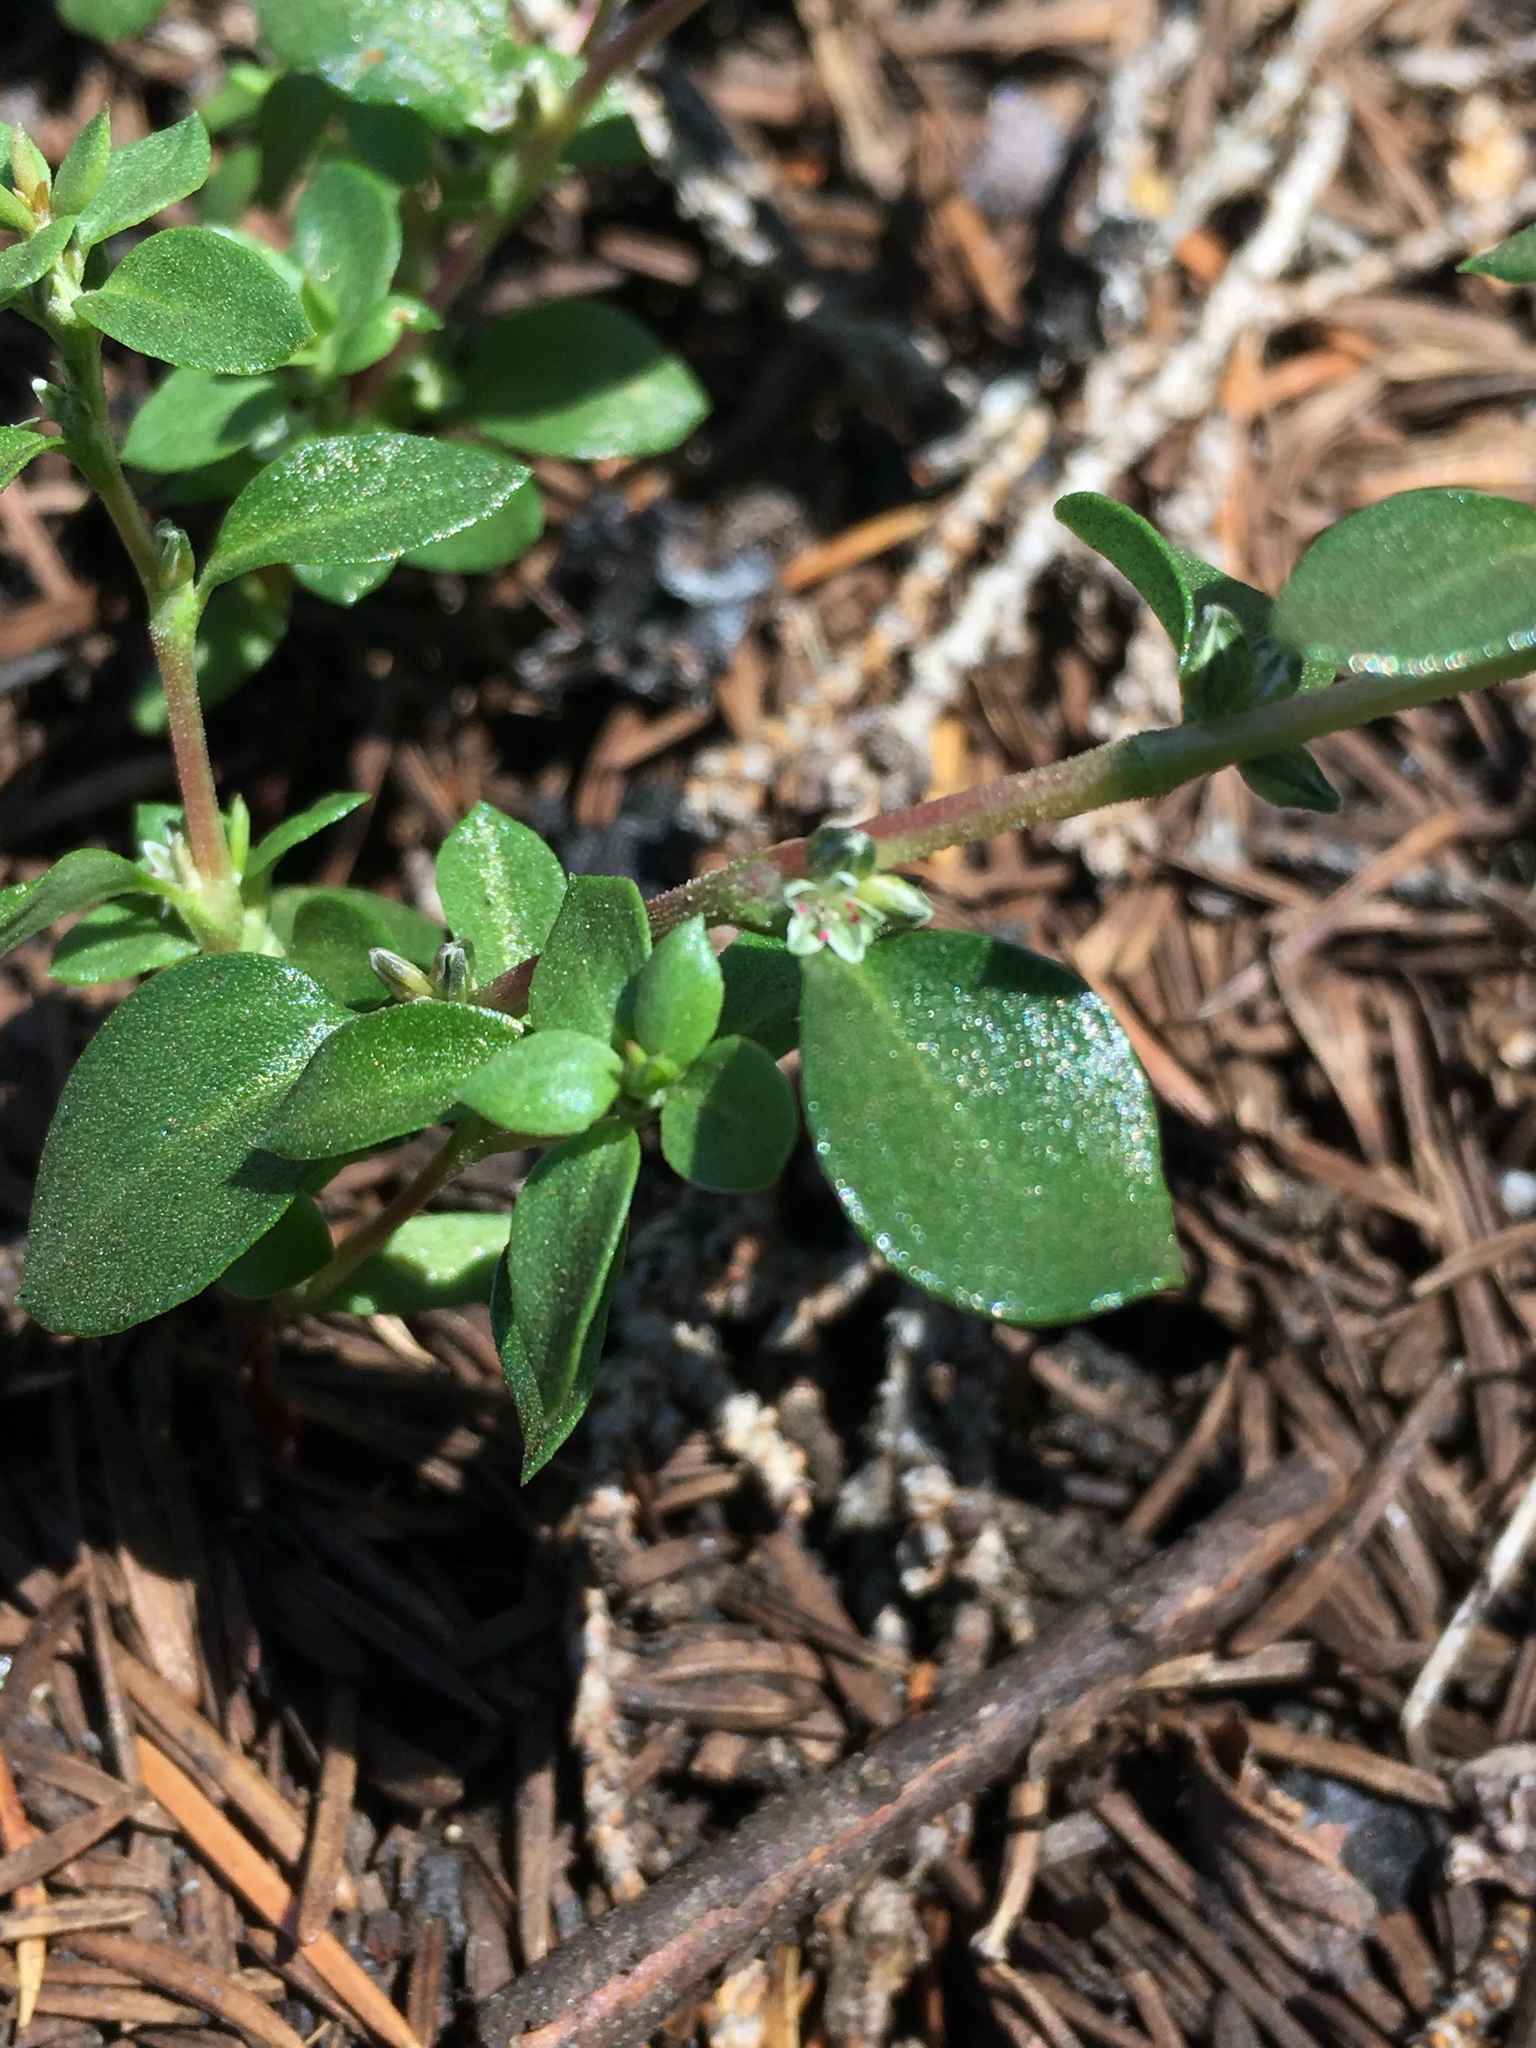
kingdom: Plantae
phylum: Tracheophyta
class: Magnoliopsida
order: Caryophyllales
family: Polygonaceae
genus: Polygonum
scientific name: Polygonum minimum
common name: Broad-leaved knotweed
